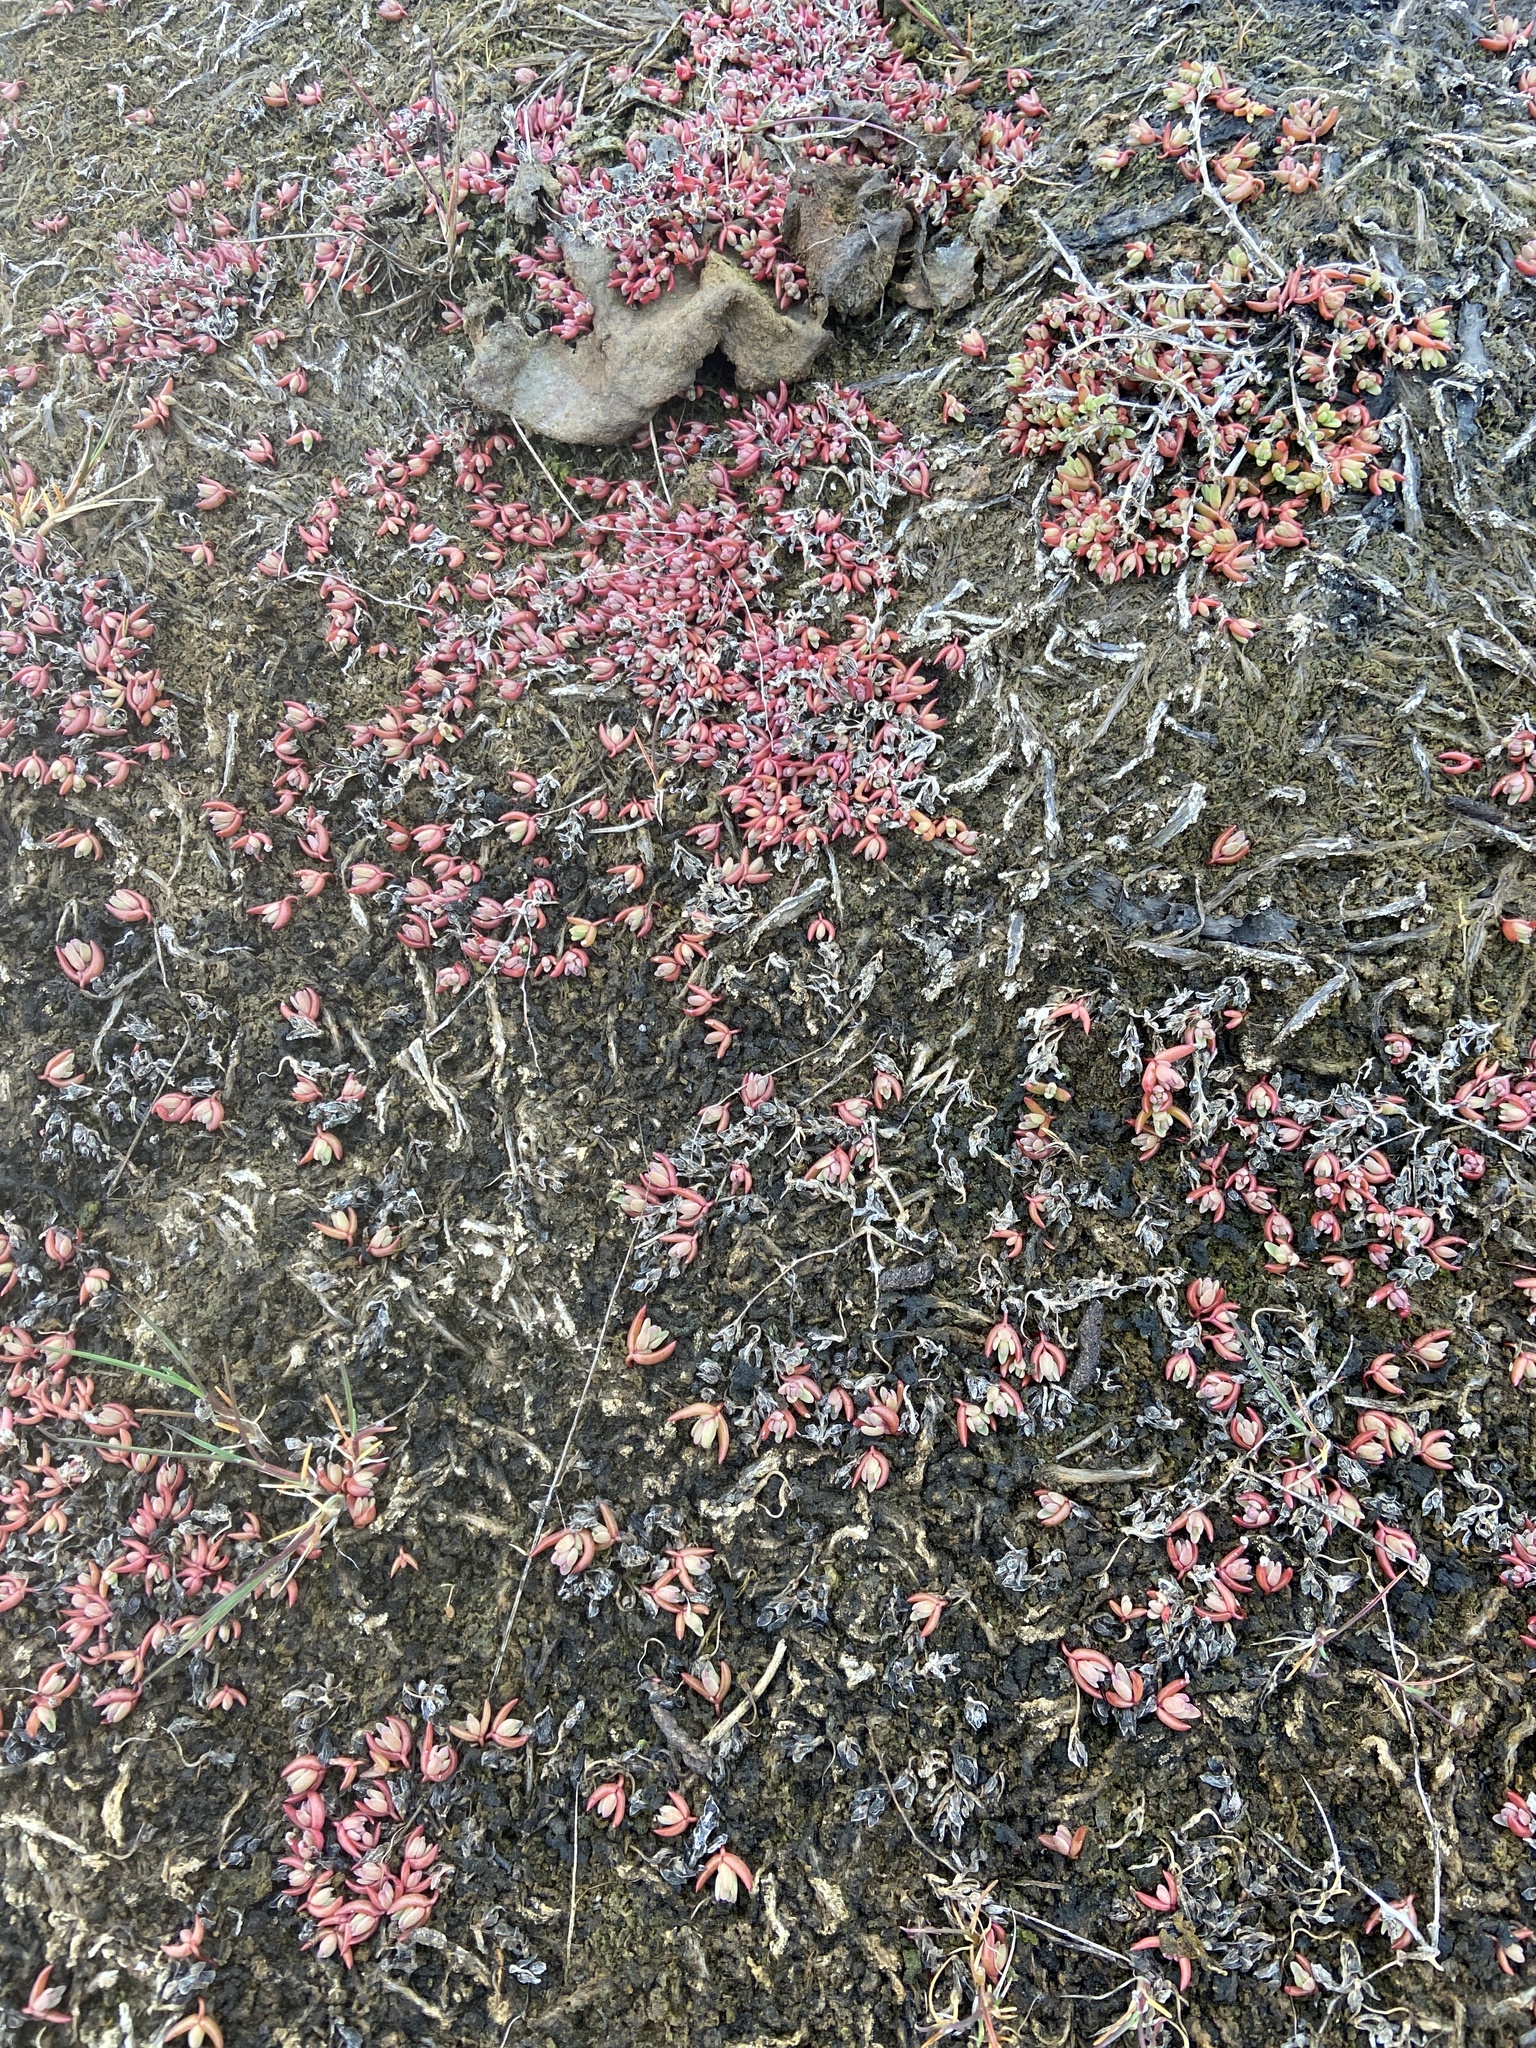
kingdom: Plantae
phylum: Tracheophyta
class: Magnoliopsida
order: Caryophyllales
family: Amaranthaceae
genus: Suaeda
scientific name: Suaeda arctica
